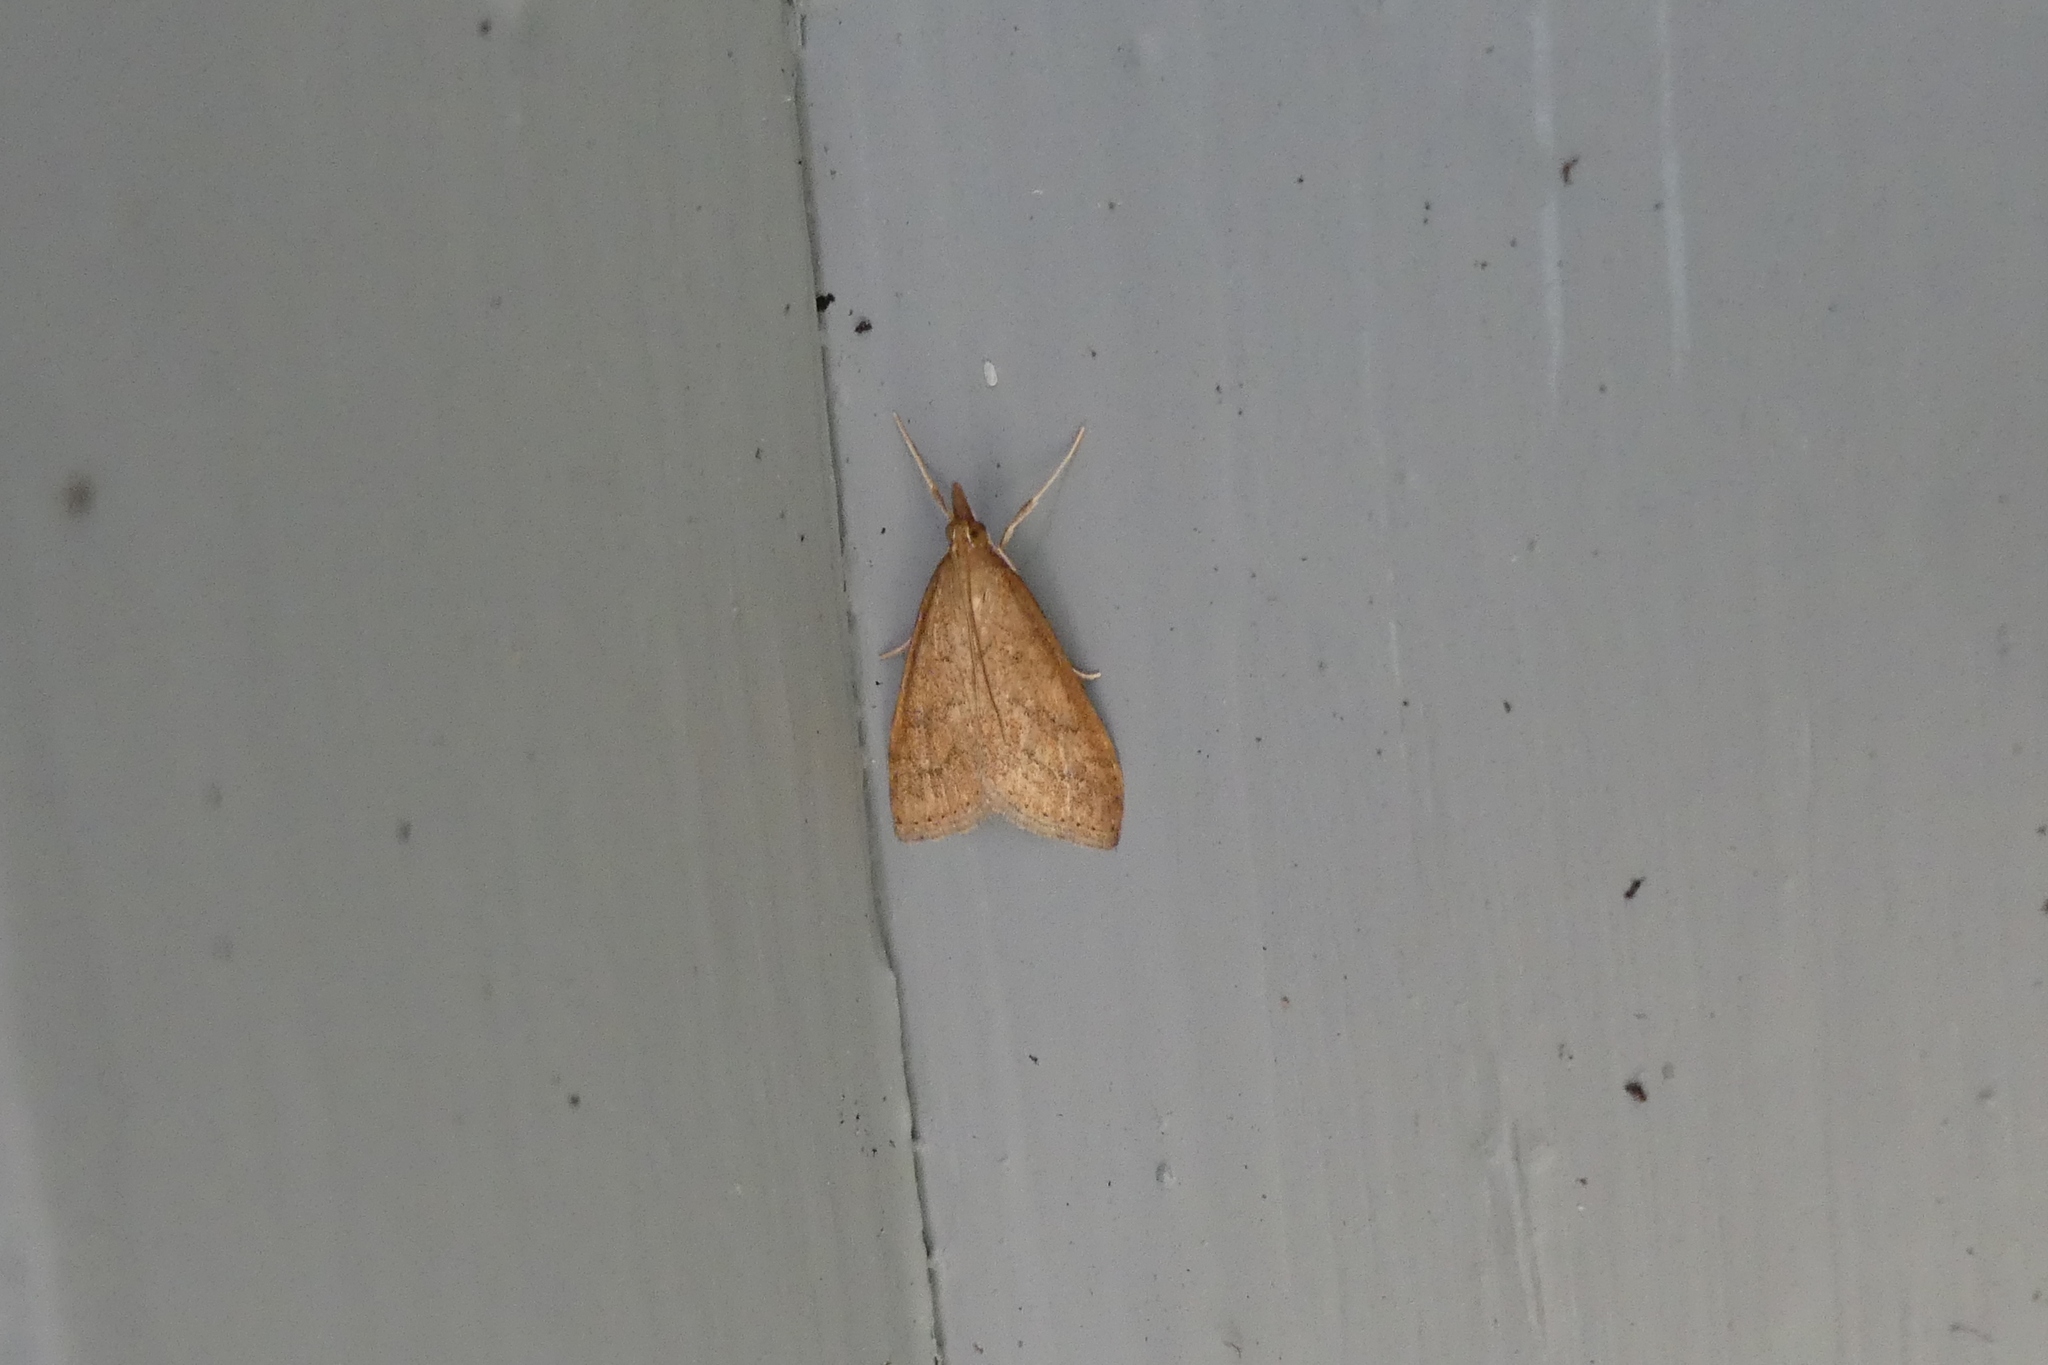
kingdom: Animalia
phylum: Arthropoda
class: Insecta
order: Lepidoptera
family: Crambidae
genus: Udea
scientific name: Udea rubigalis
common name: Celery leaftier moth
